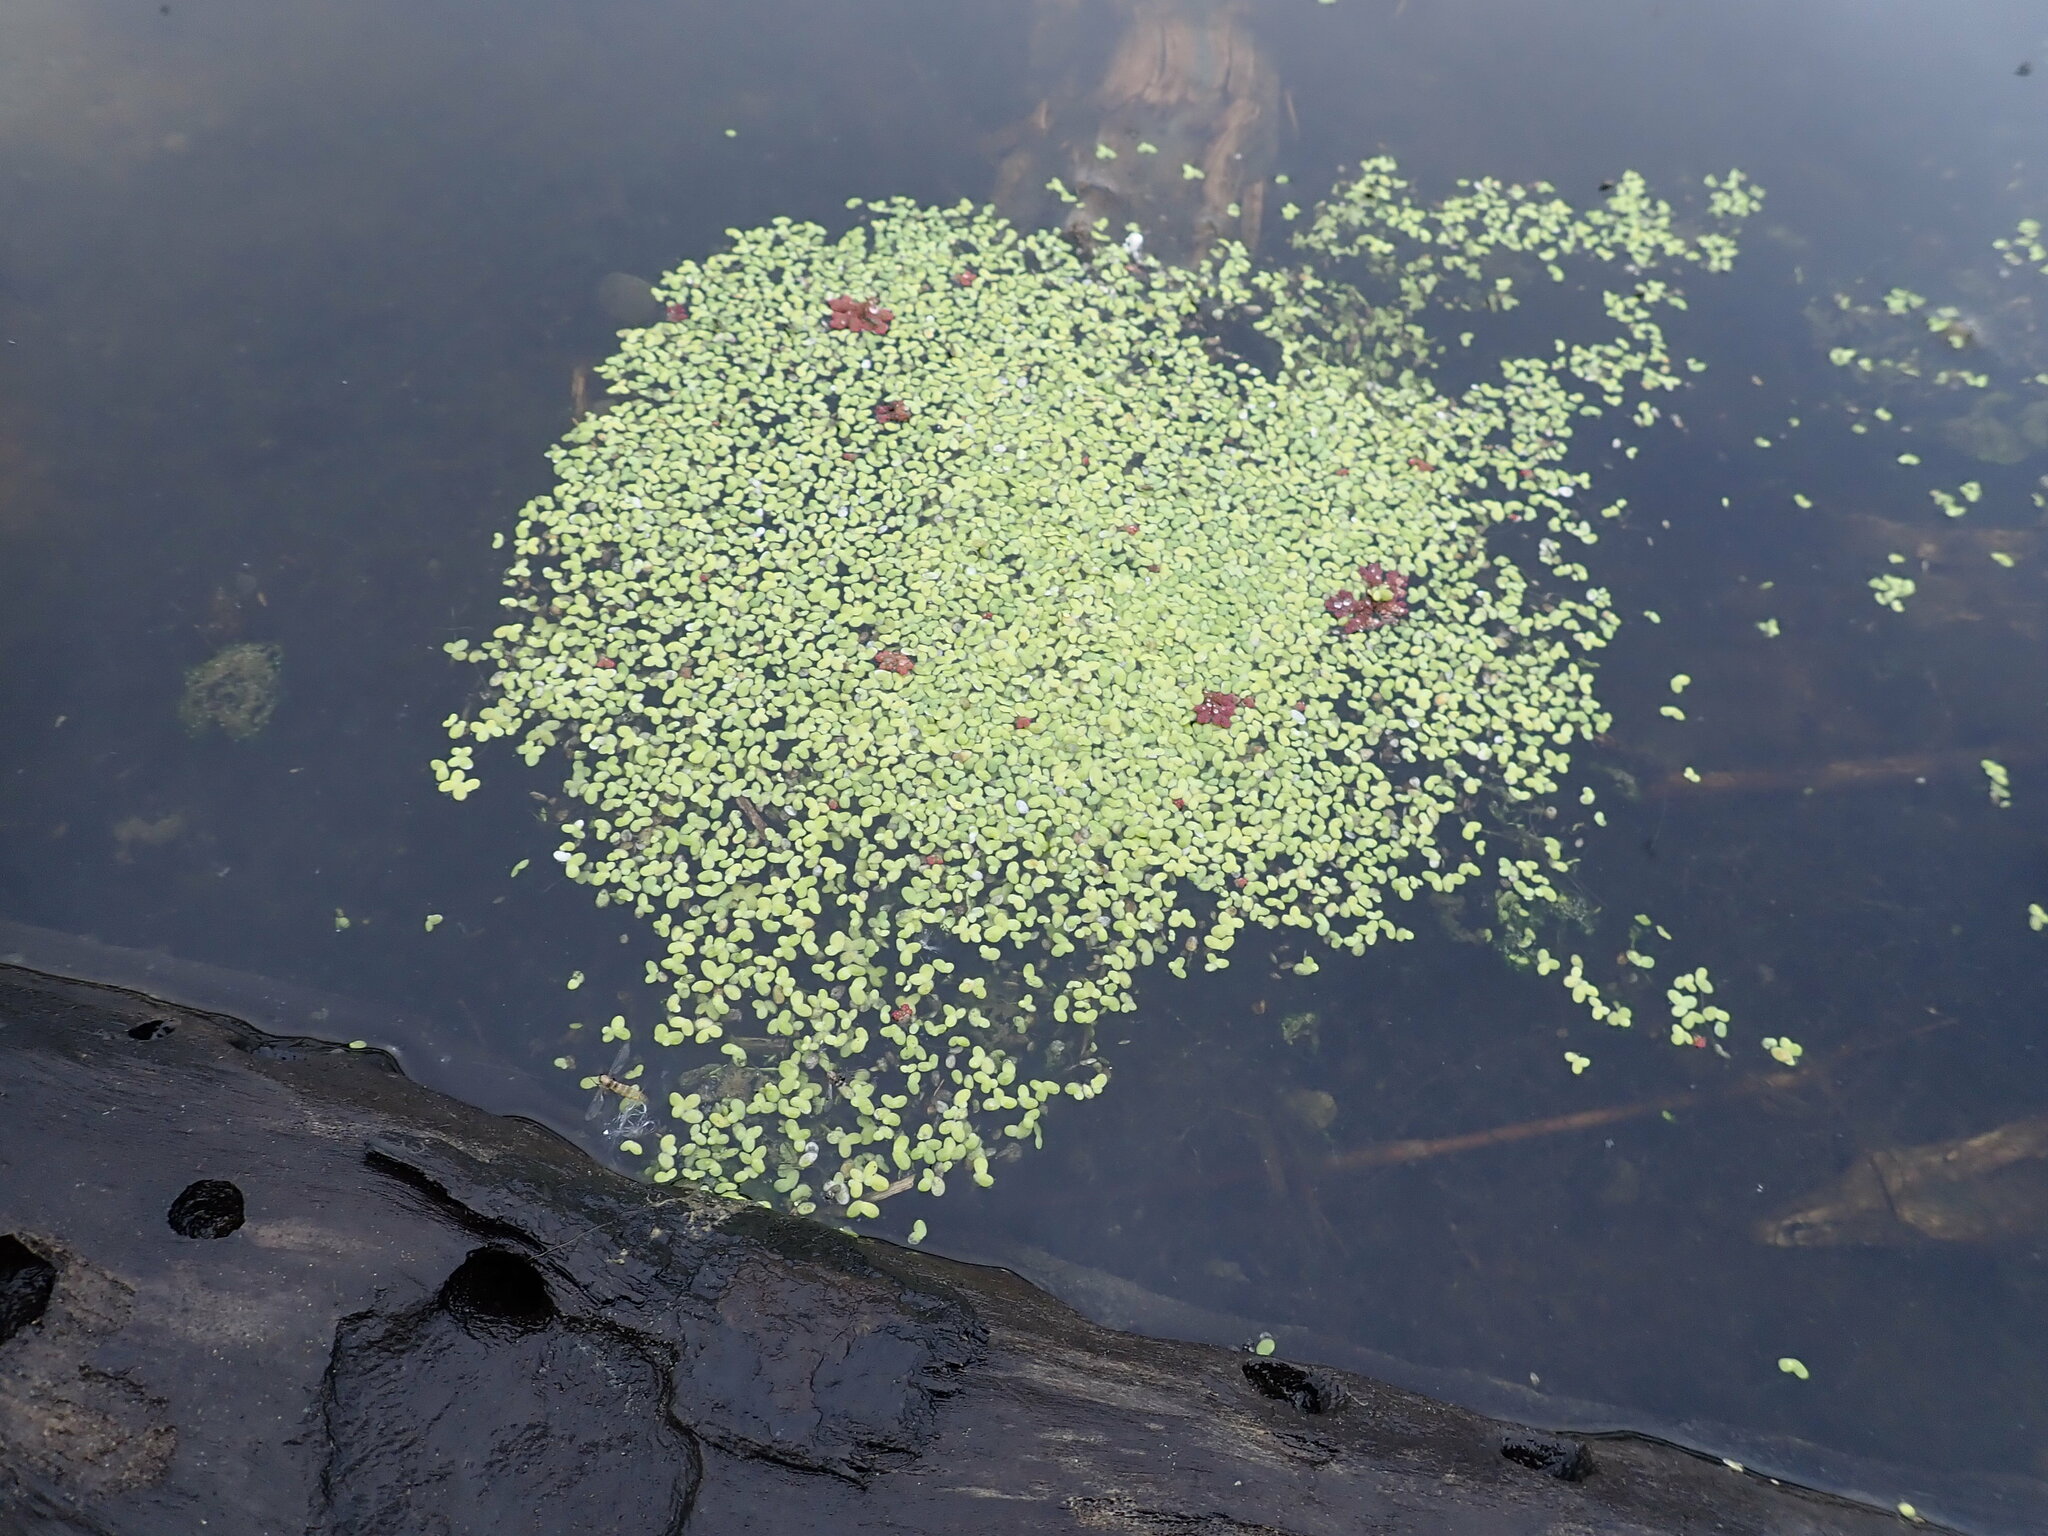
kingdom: Plantae
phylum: Tracheophyta
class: Polypodiopsida
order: Salviniales
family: Salviniaceae
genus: Azolla
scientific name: Azolla rubra
